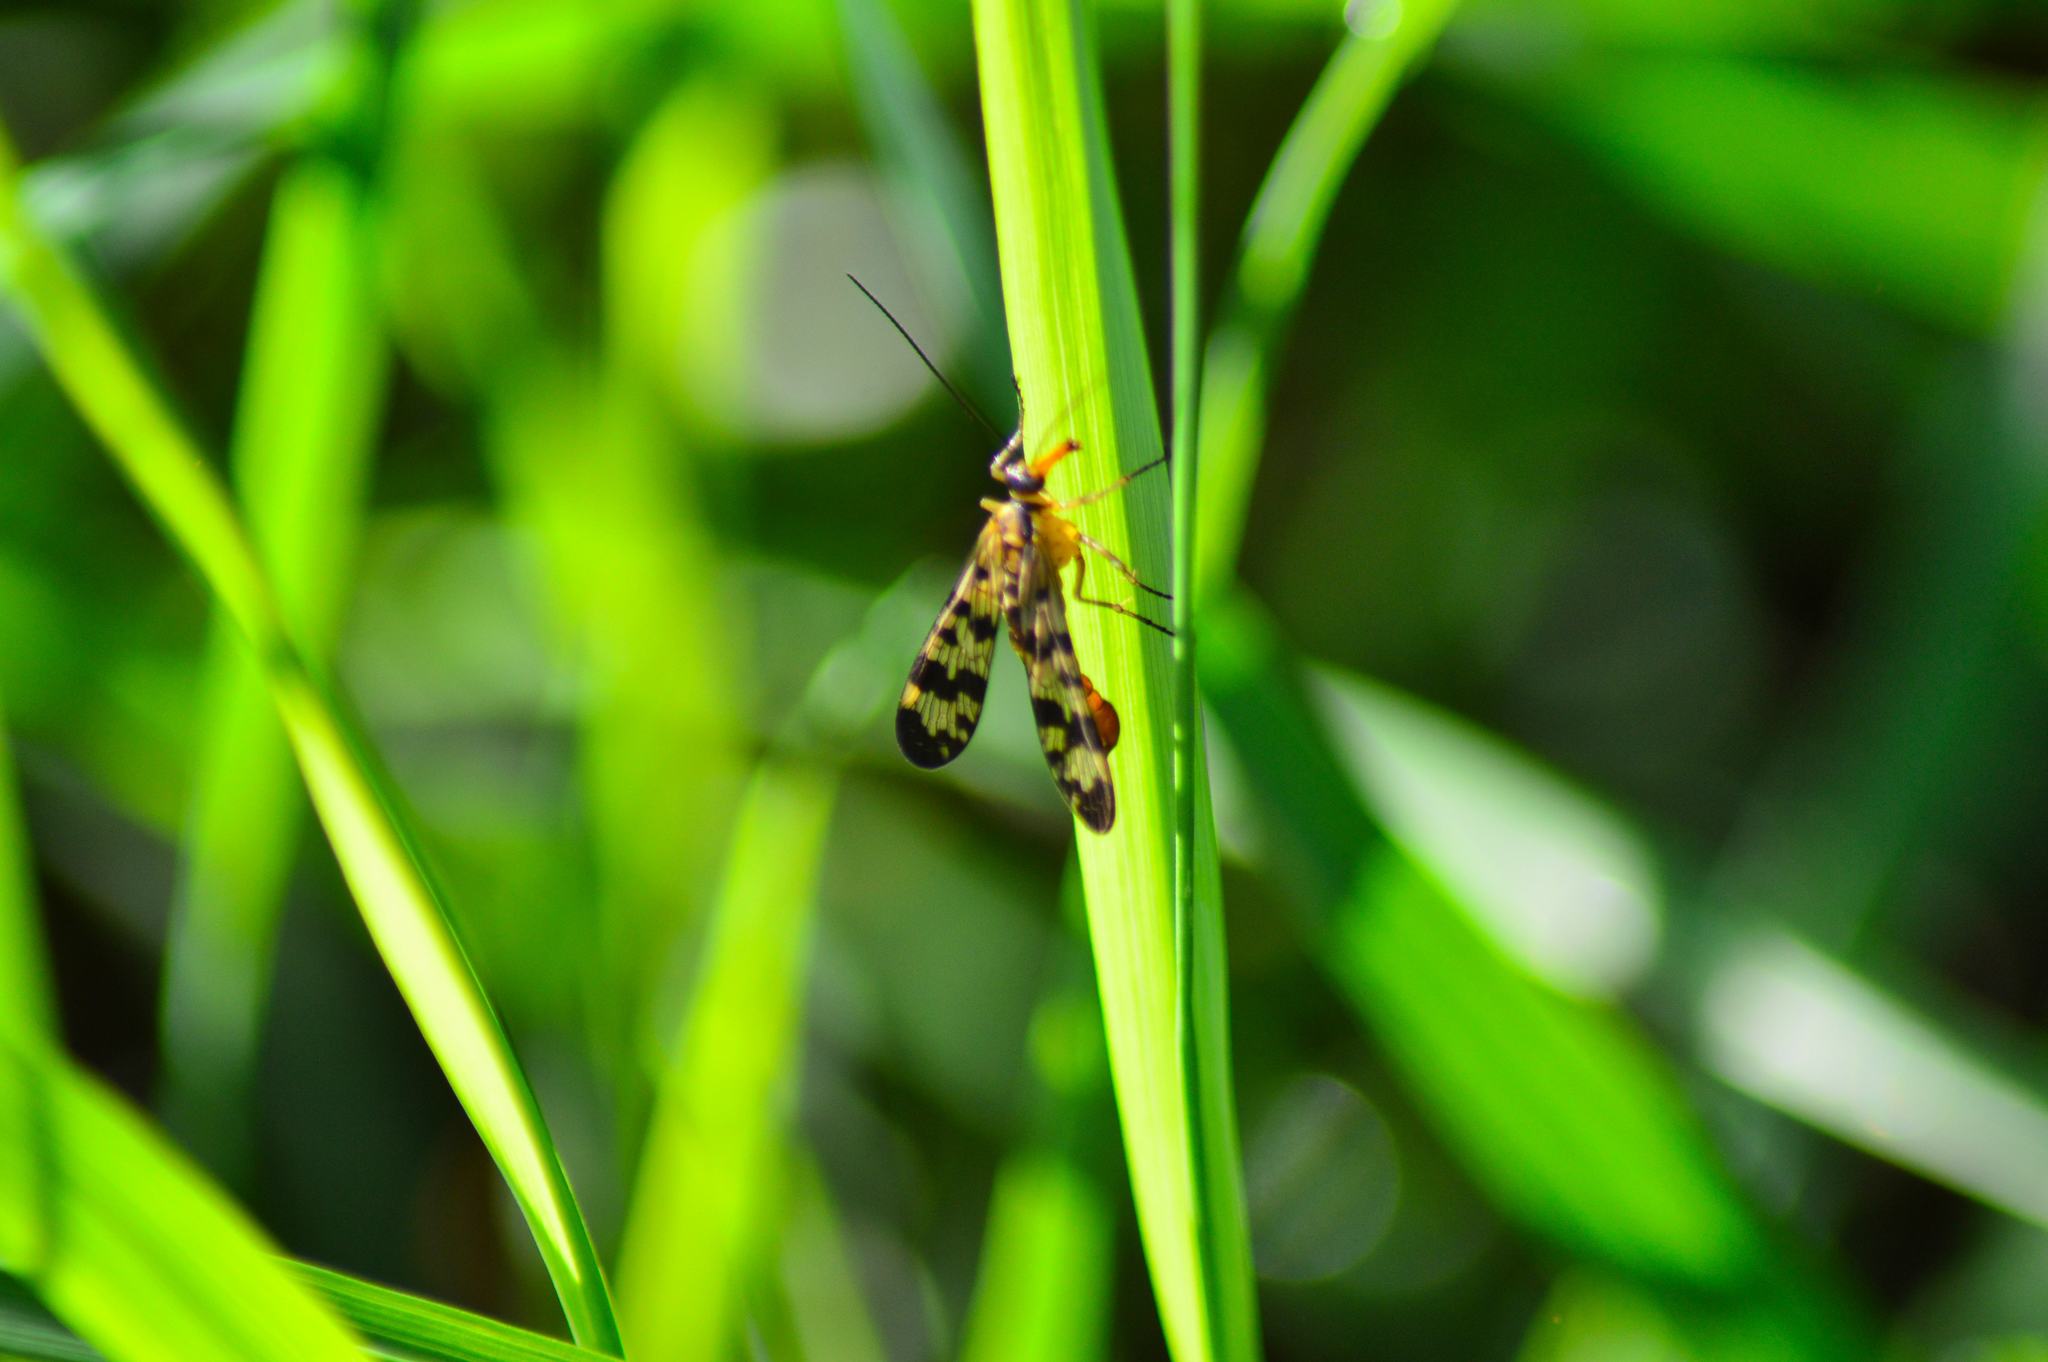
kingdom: Animalia
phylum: Arthropoda
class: Insecta
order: Mecoptera
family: Panorpidae
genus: Panorpa
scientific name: Panorpa communis
